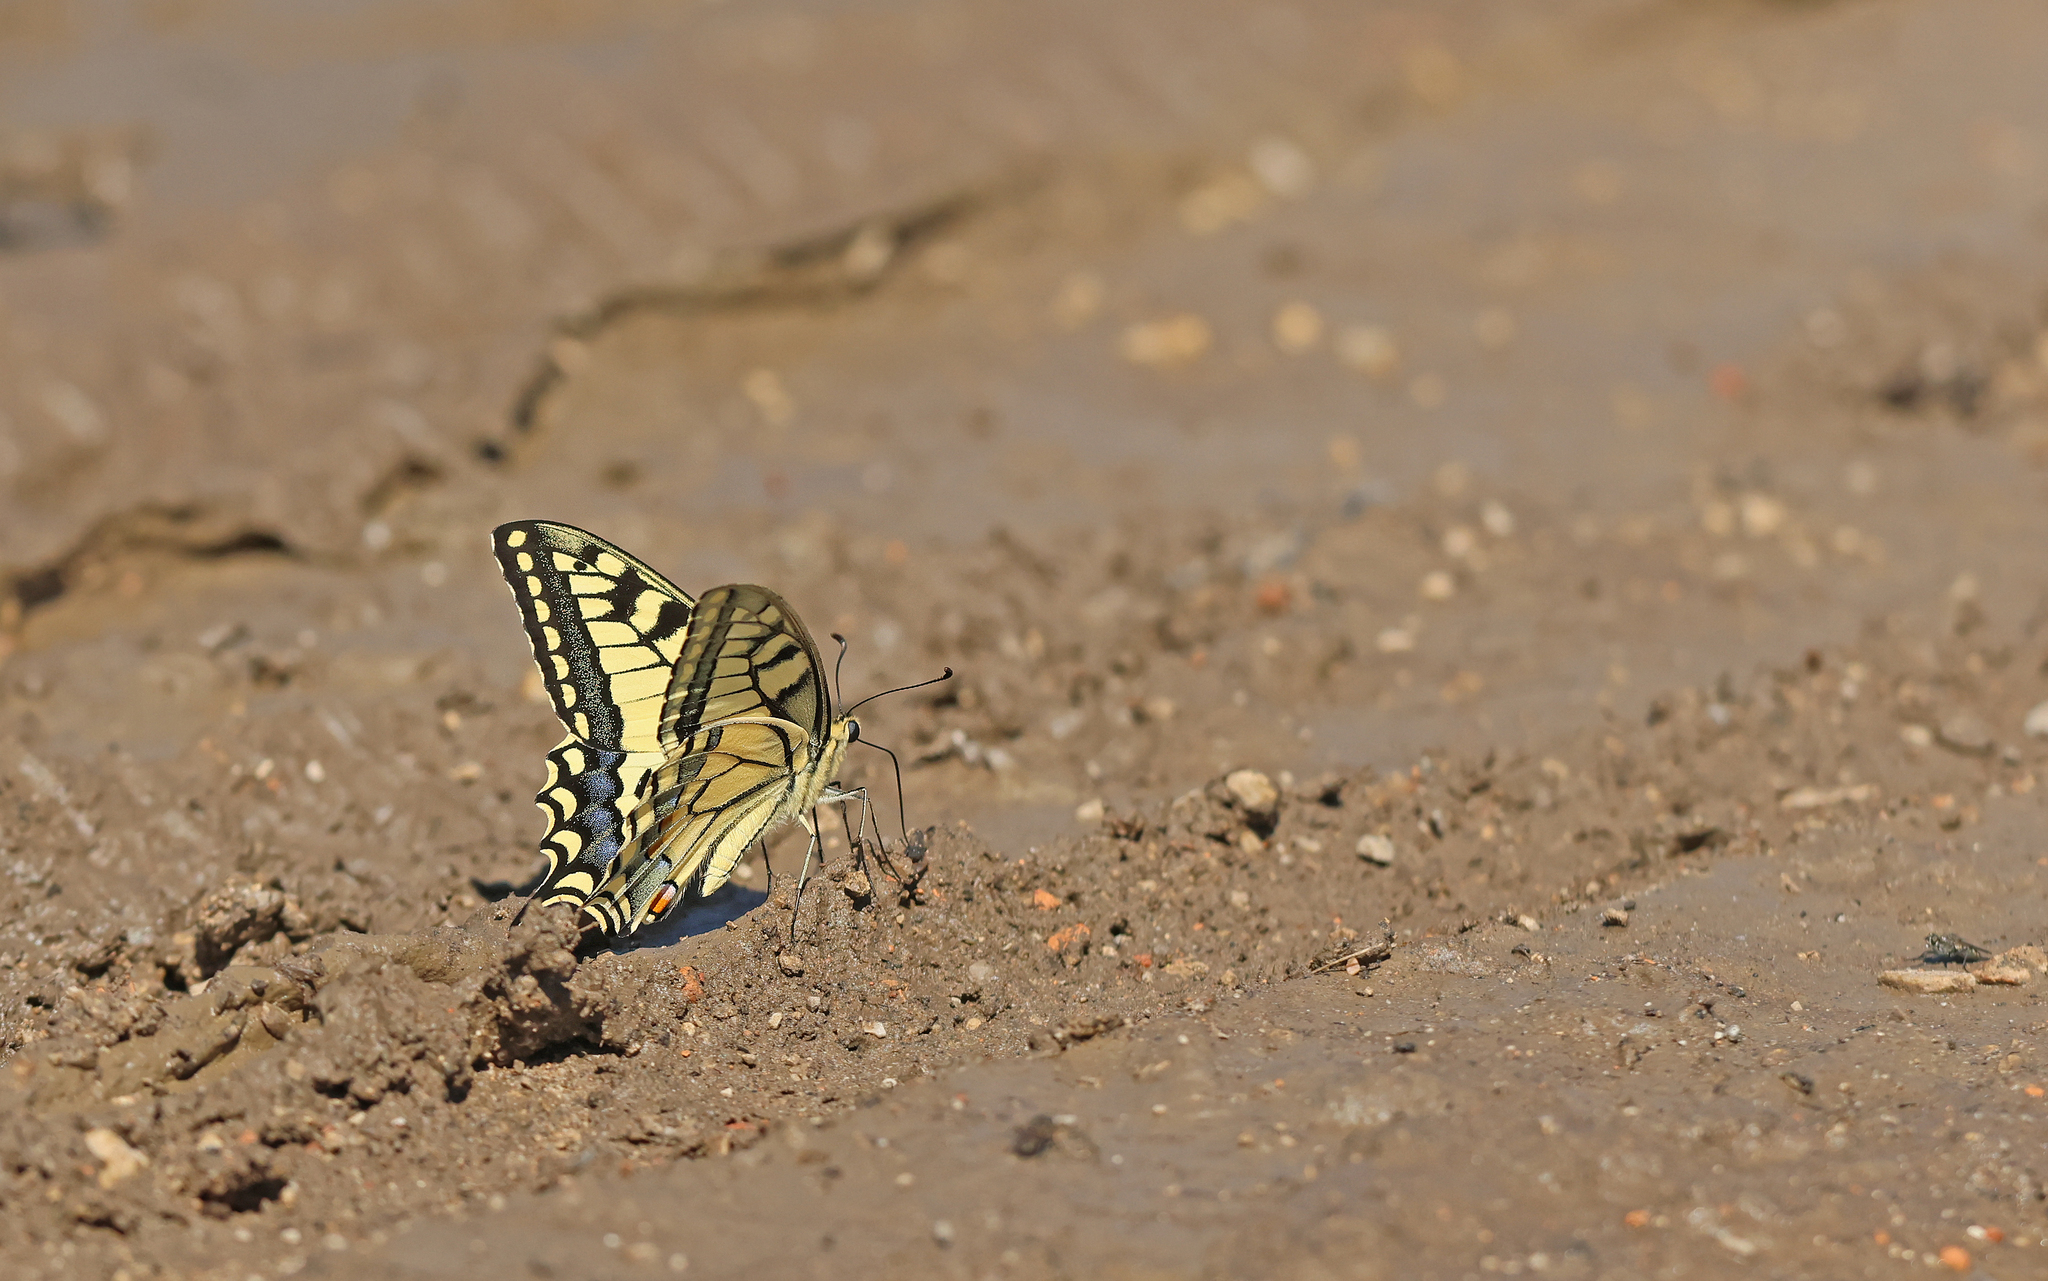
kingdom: Animalia
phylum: Arthropoda
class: Insecta
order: Lepidoptera
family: Papilionidae
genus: Papilio
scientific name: Papilio machaon
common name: Swallowtail
